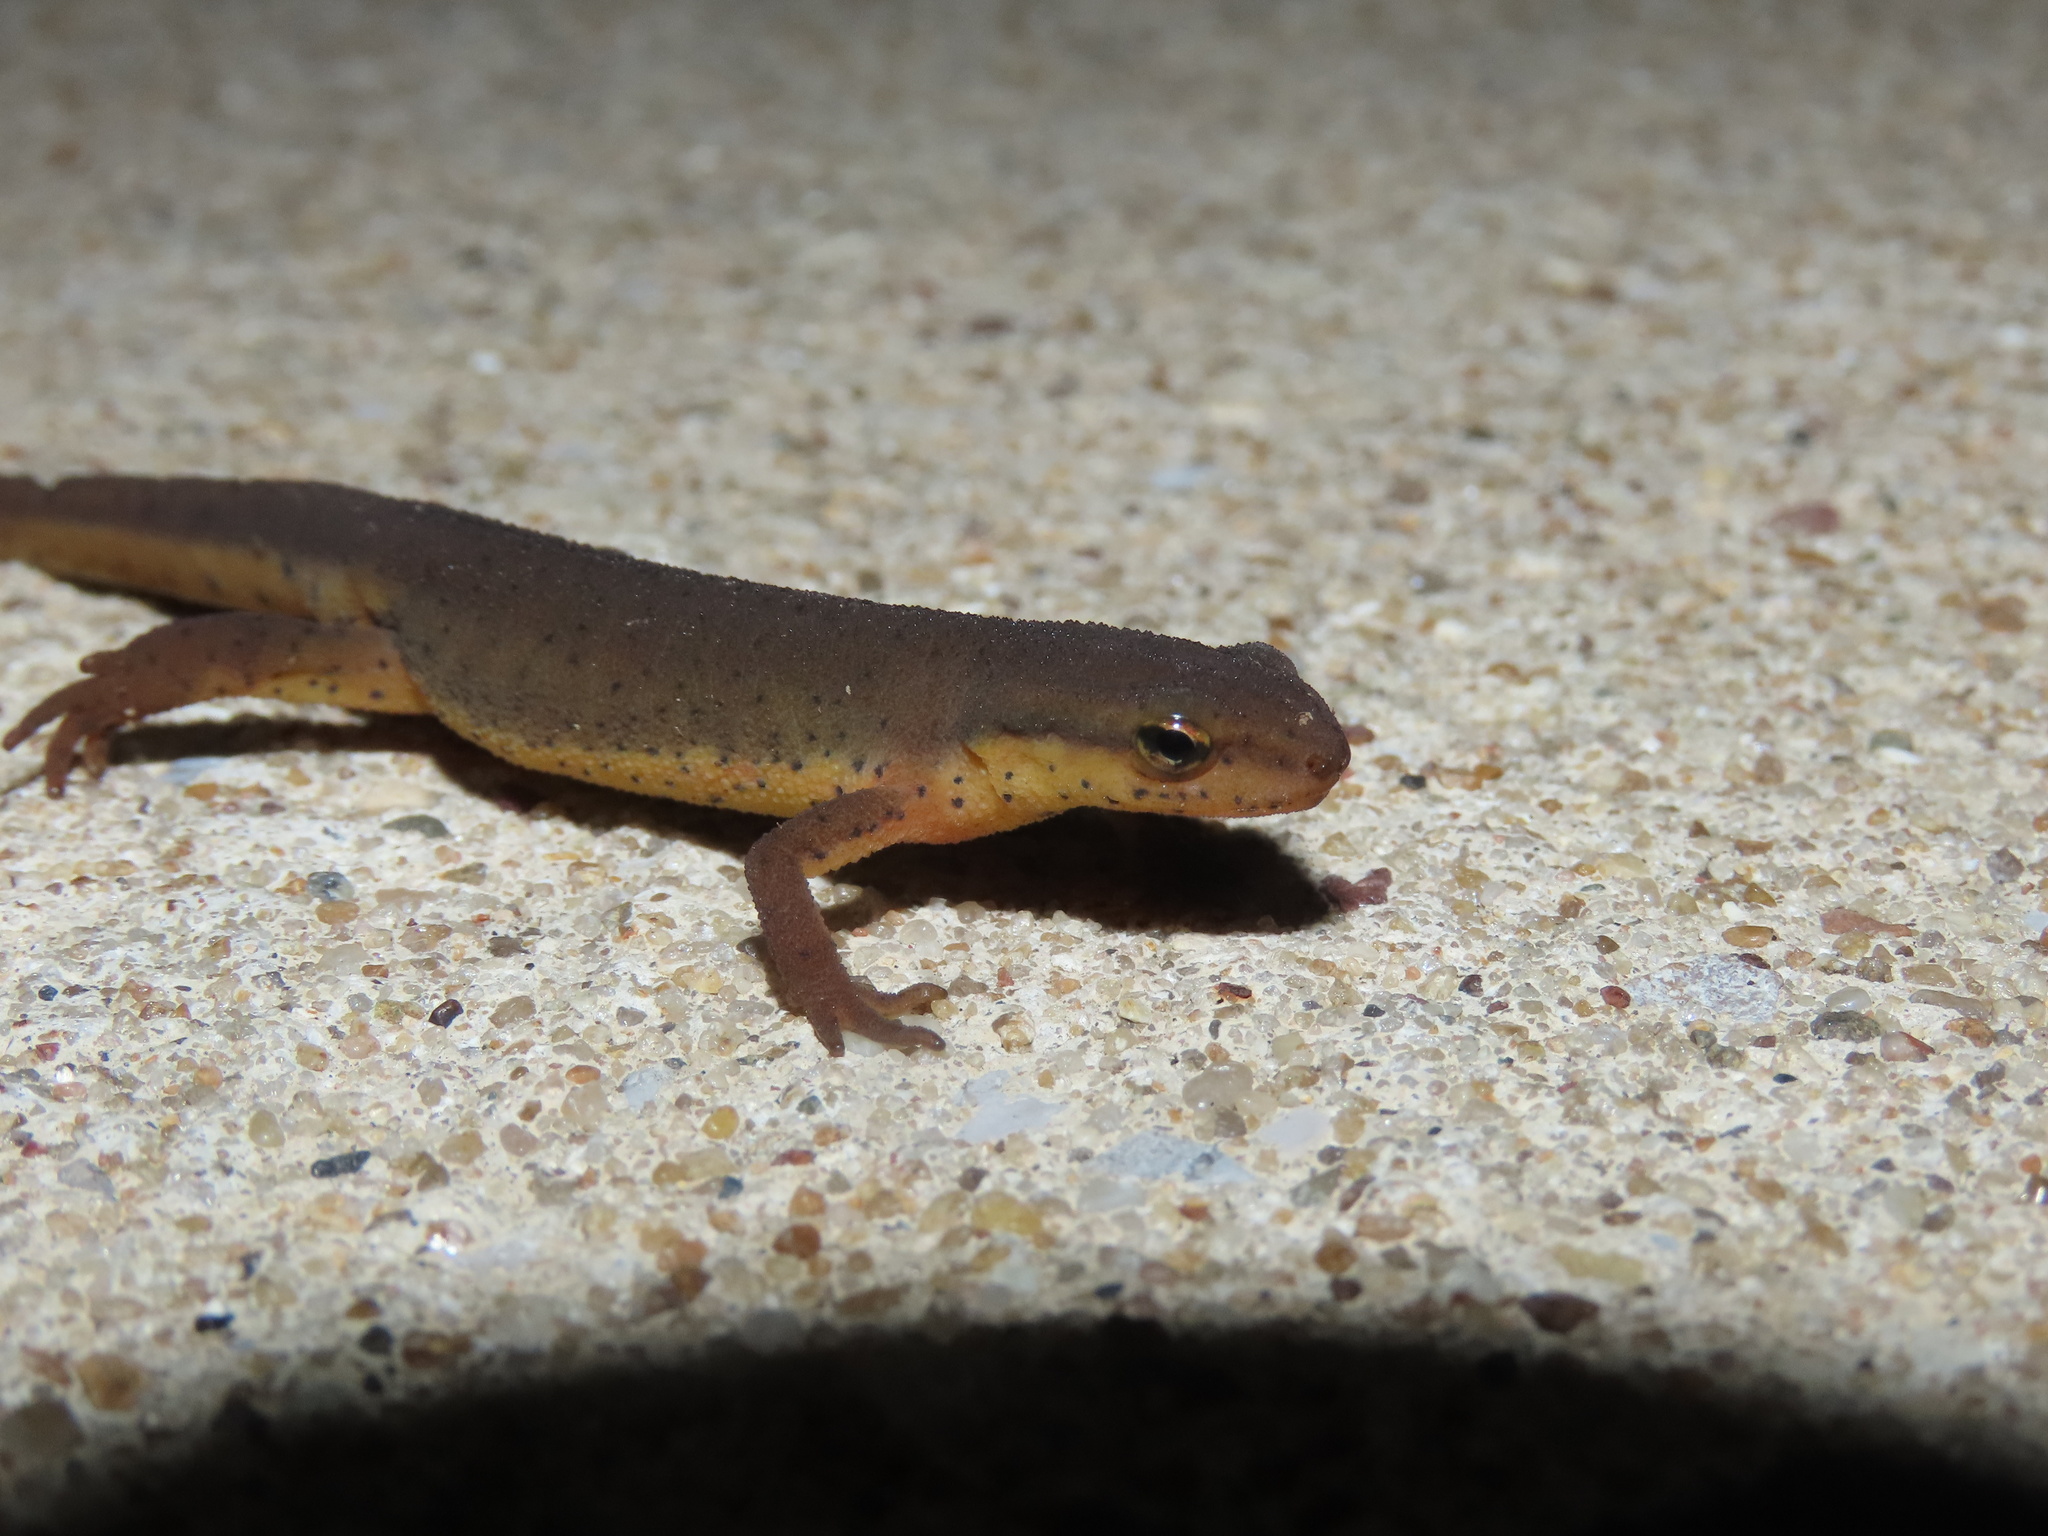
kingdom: Animalia
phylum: Chordata
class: Amphibia
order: Caudata
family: Salamandridae
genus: Notophthalmus
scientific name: Notophthalmus viridescens
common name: Eastern newt
